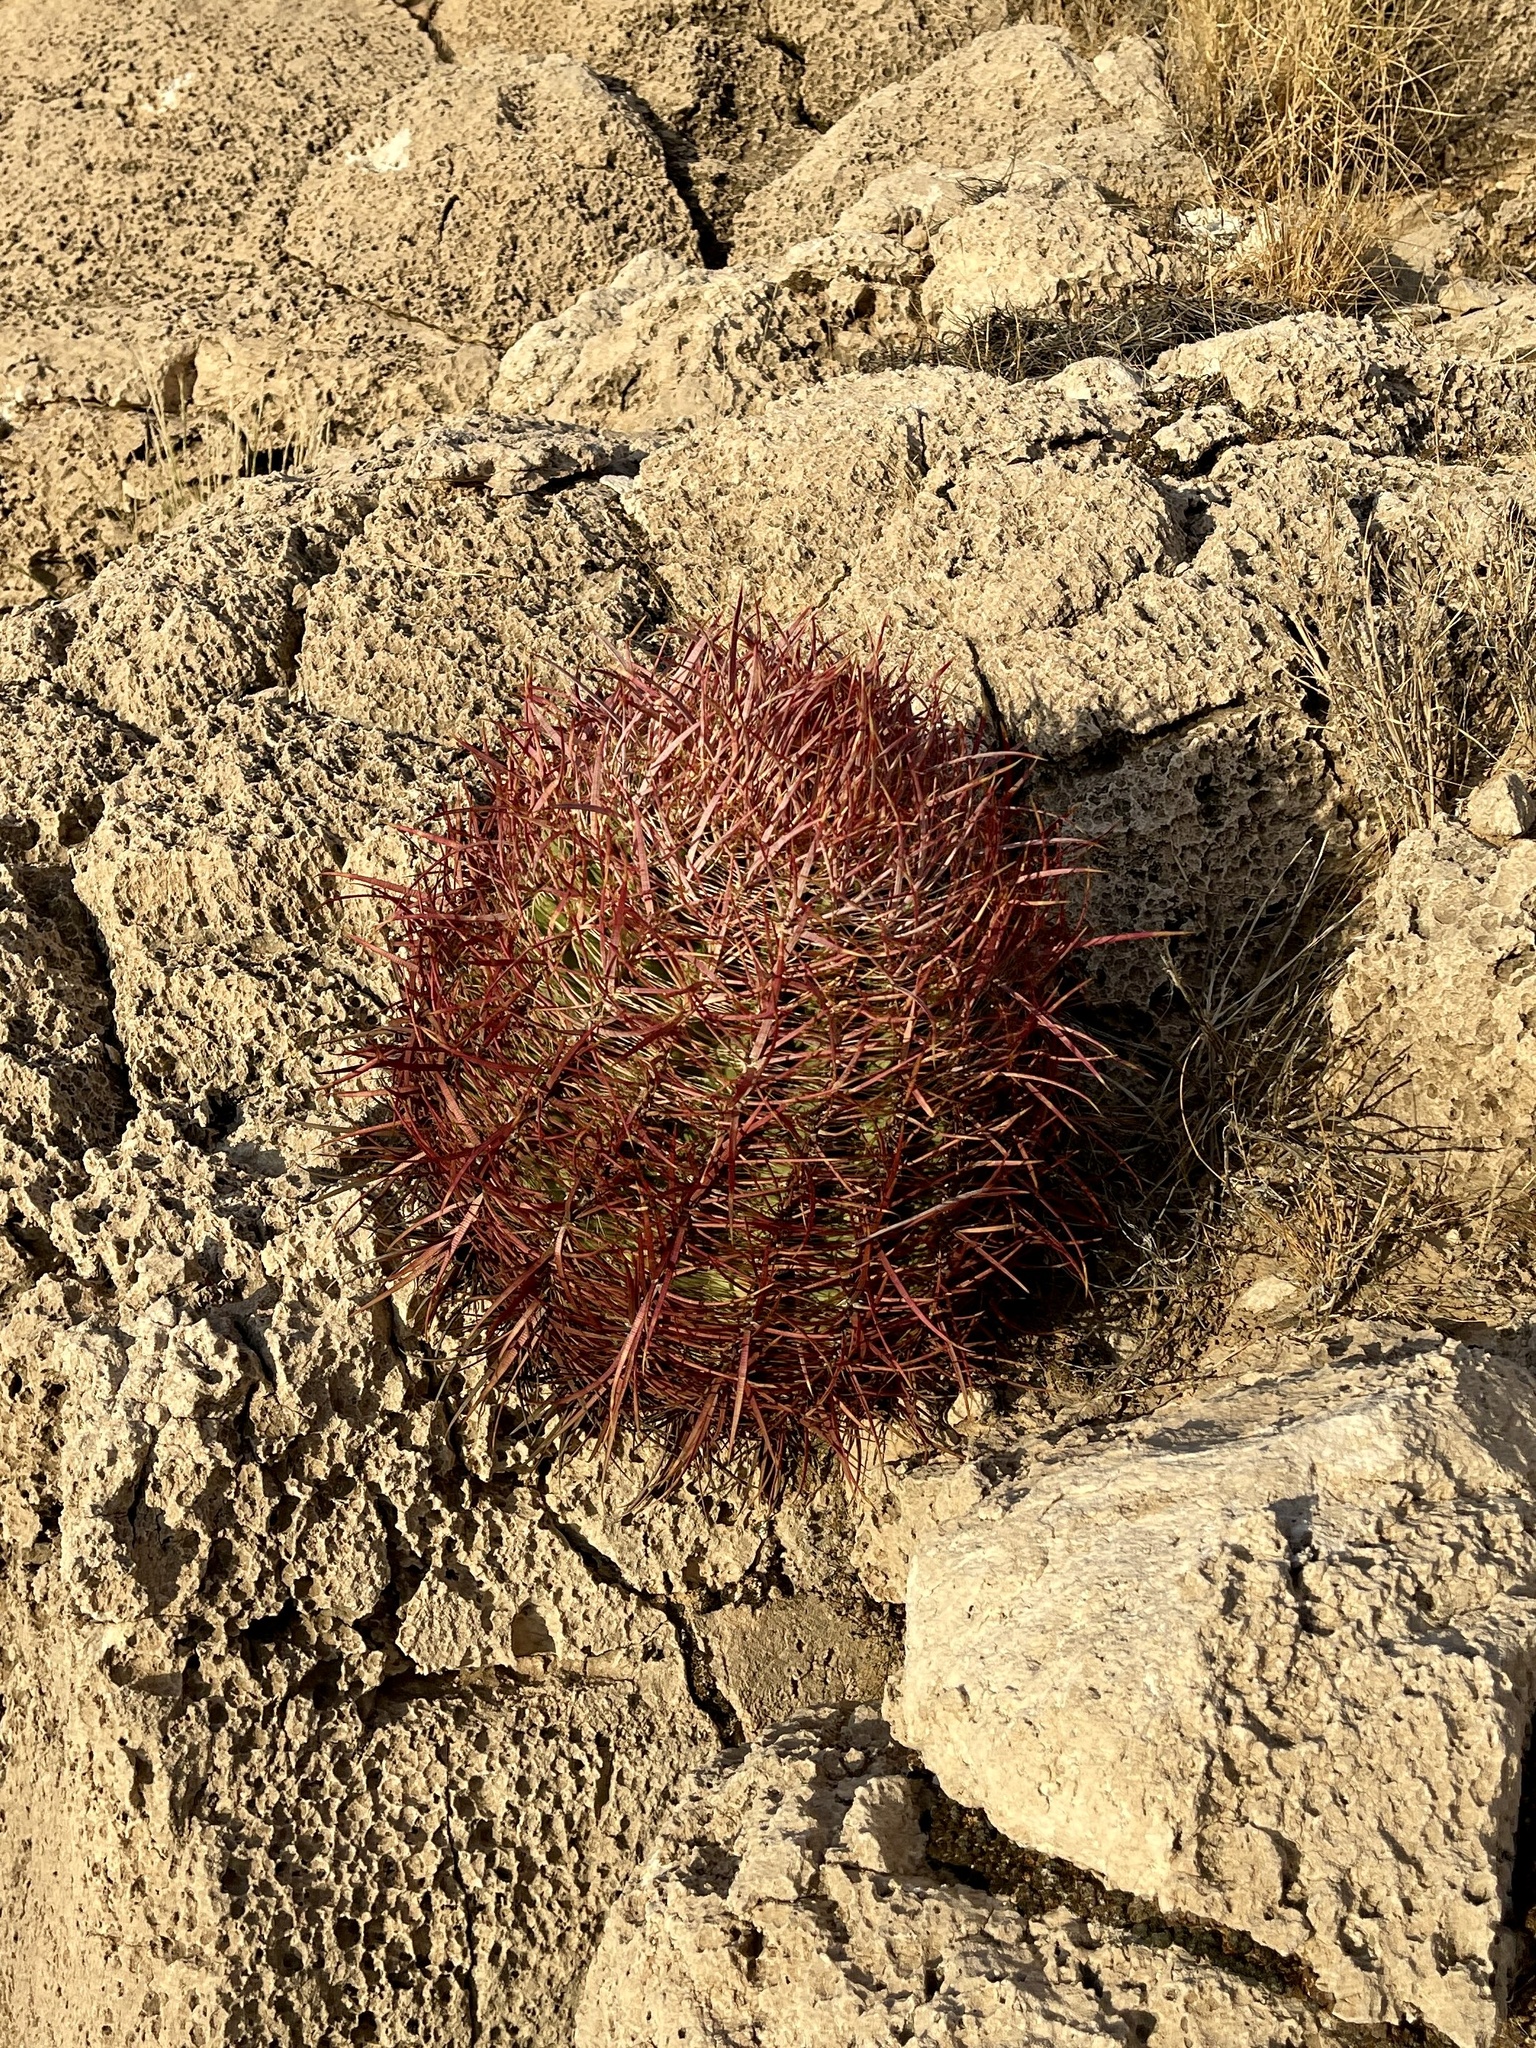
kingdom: Plantae
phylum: Tracheophyta
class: Magnoliopsida
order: Caryophyllales
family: Cactaceae
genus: Ferocactus
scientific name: Ferocactus cylindraceus
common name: California barrel cactus
